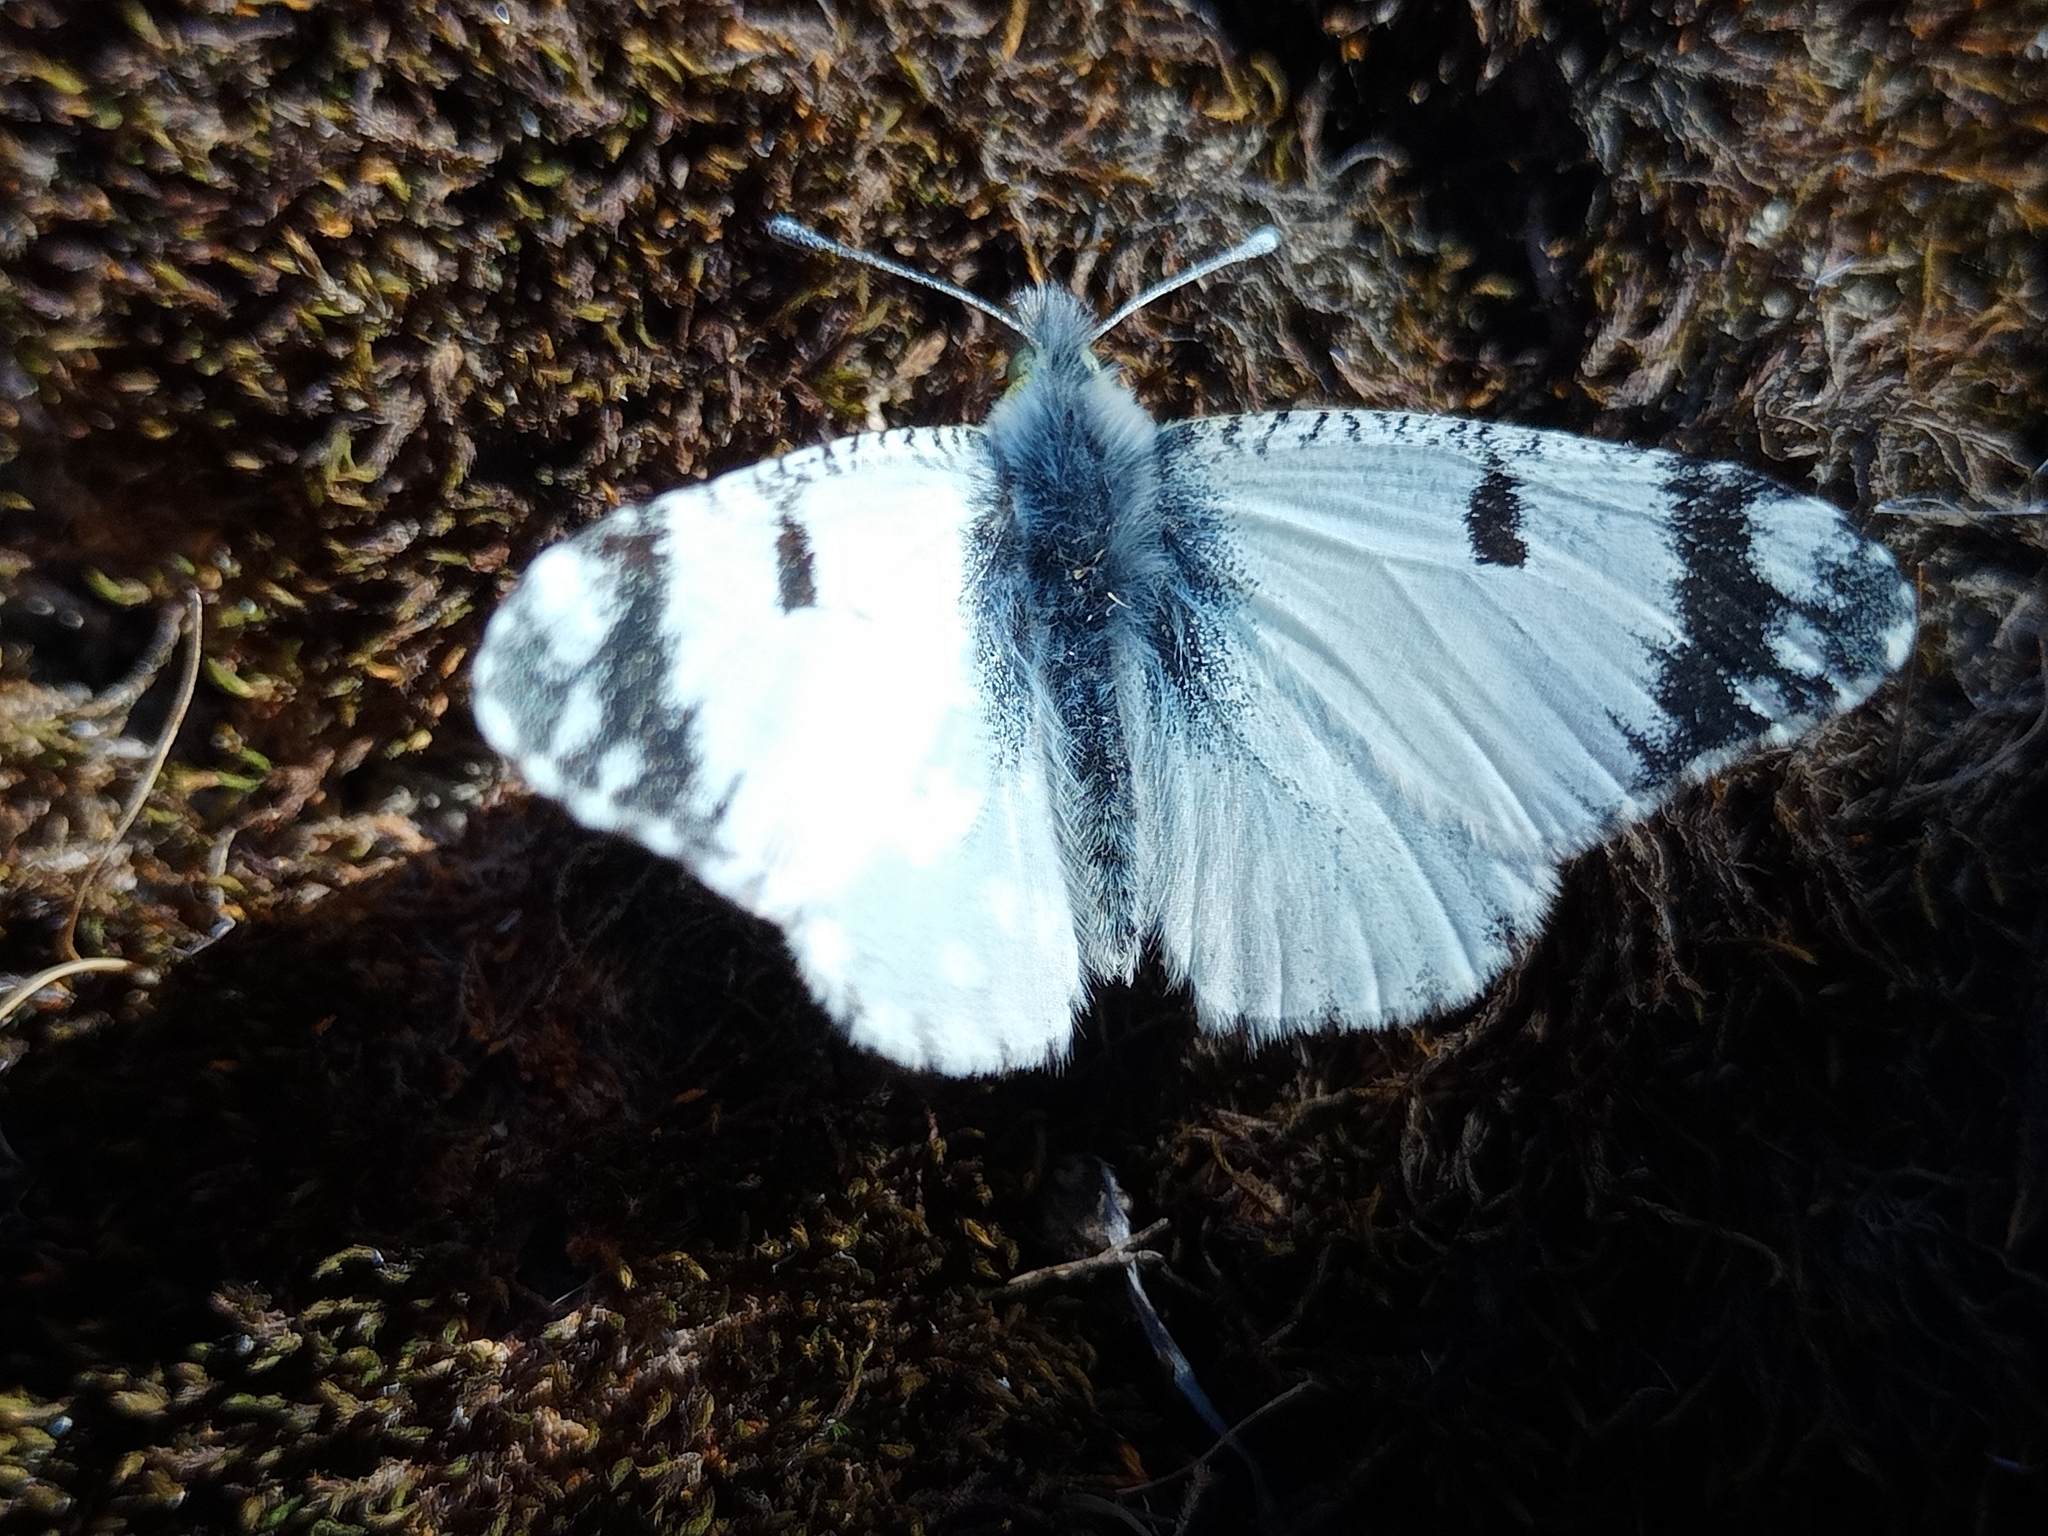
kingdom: Animalia
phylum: Arthropoda
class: Insecta
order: Lepidoptera
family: Pieridae
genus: Euchloe
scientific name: Euchloe ausonia
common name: Eastern dappled white
